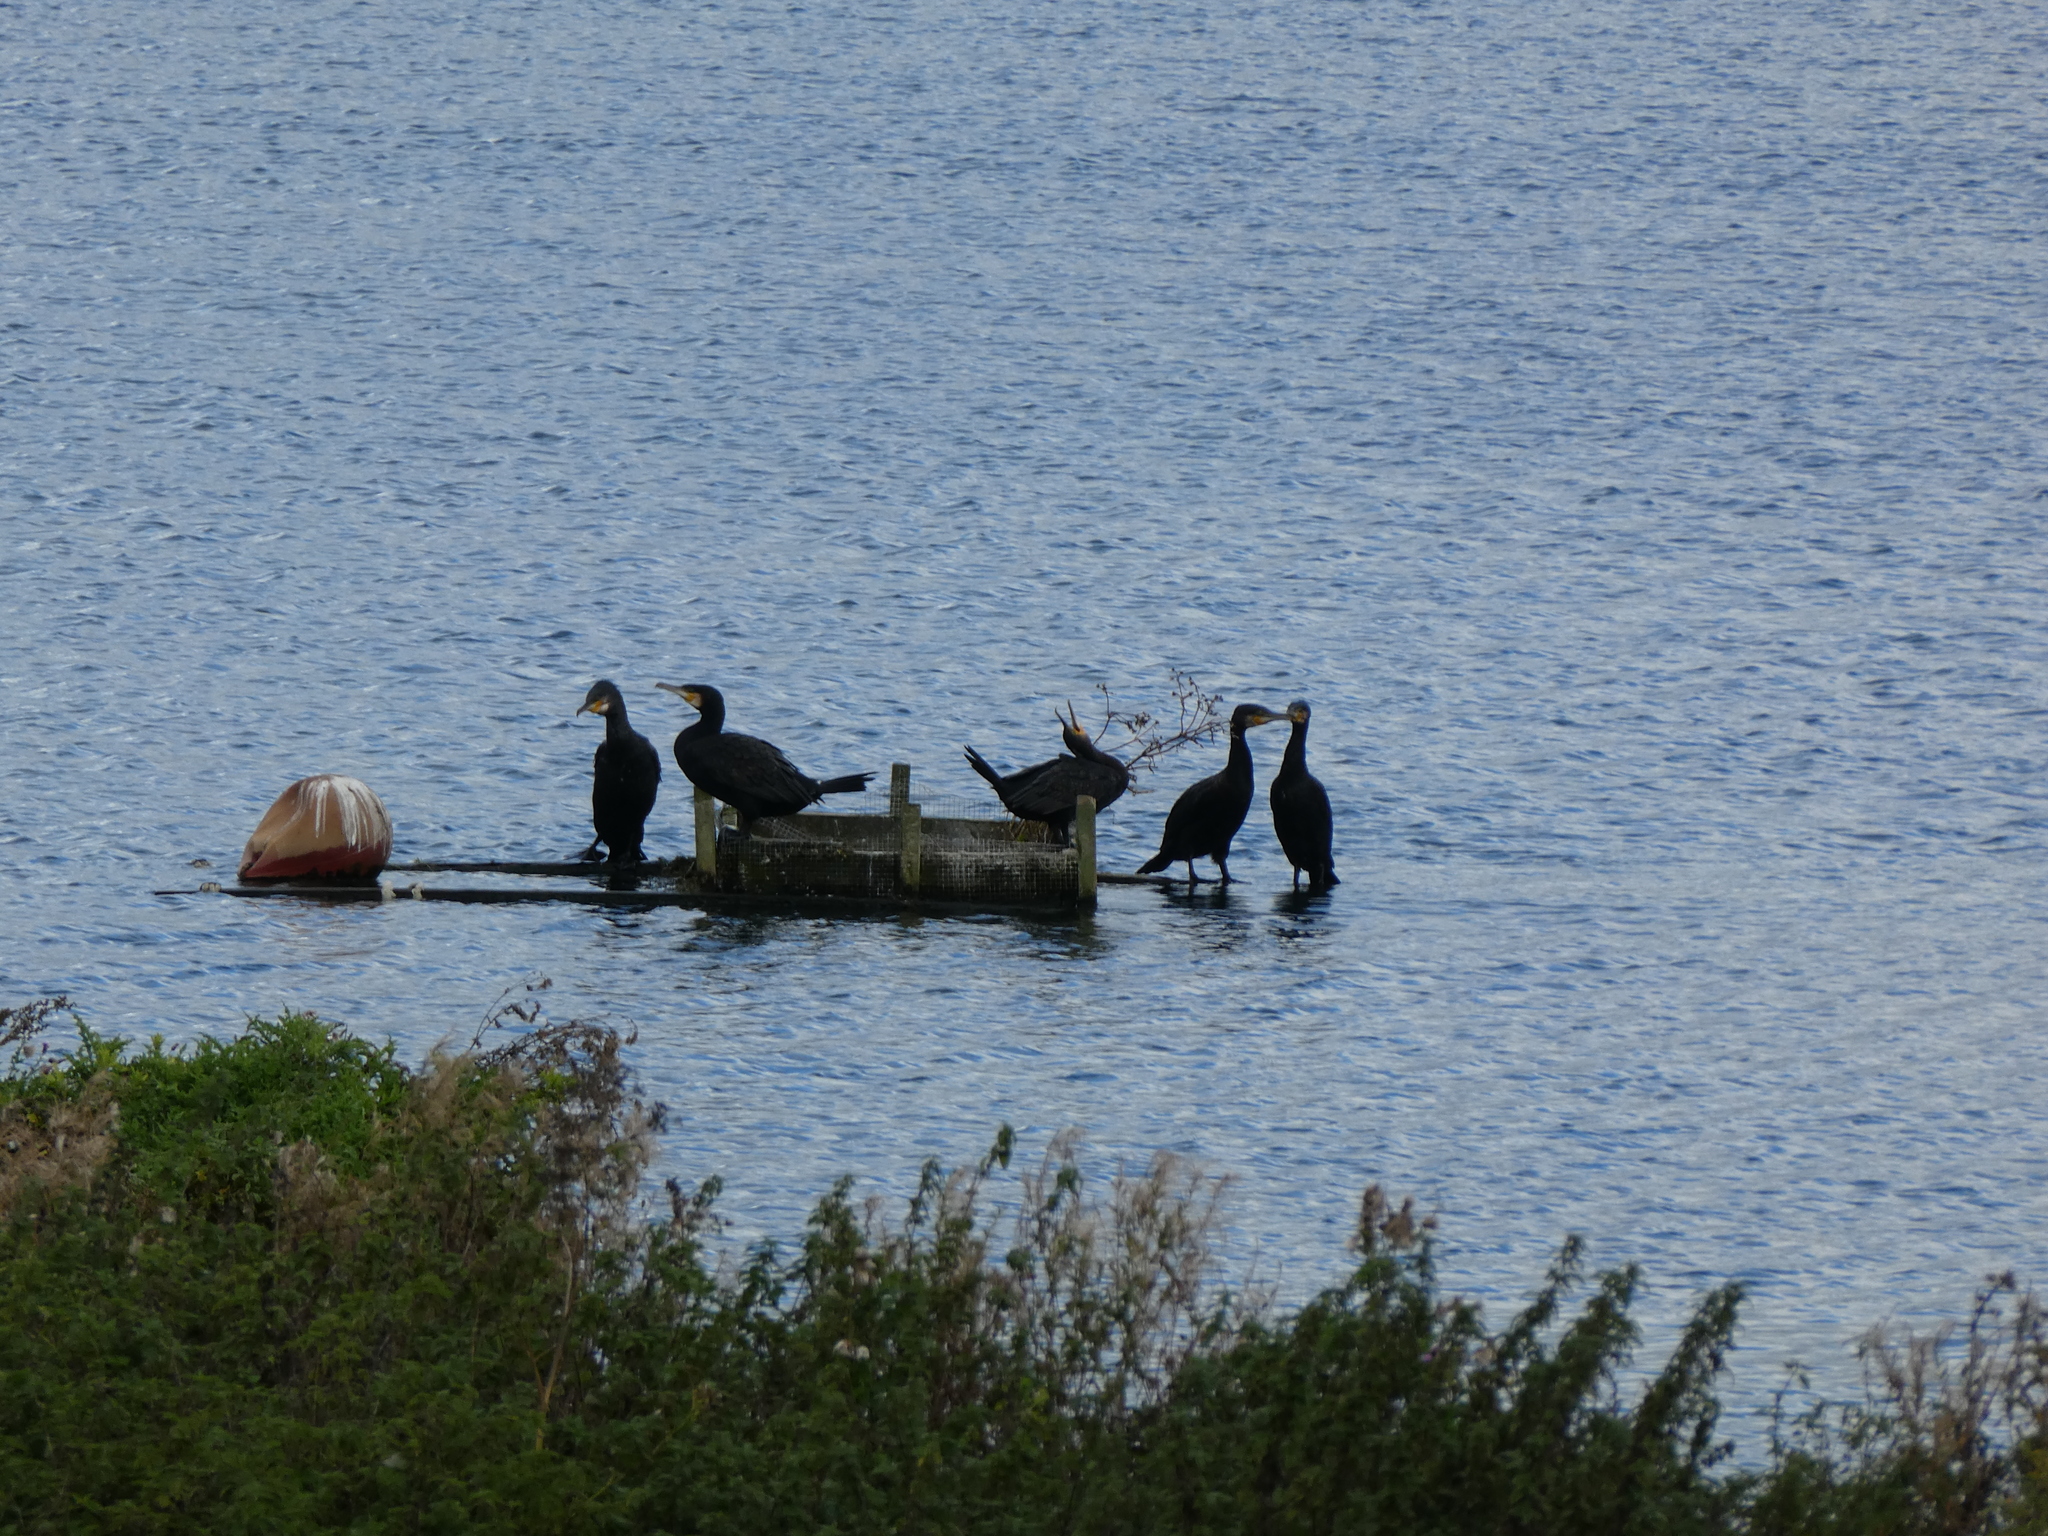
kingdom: Animalia
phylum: Chordata
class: Aves
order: Suliformes
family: Phalacrocoracidae
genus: Phalacrocorax
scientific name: Phalacrocorax carbo
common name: Great cormorant
